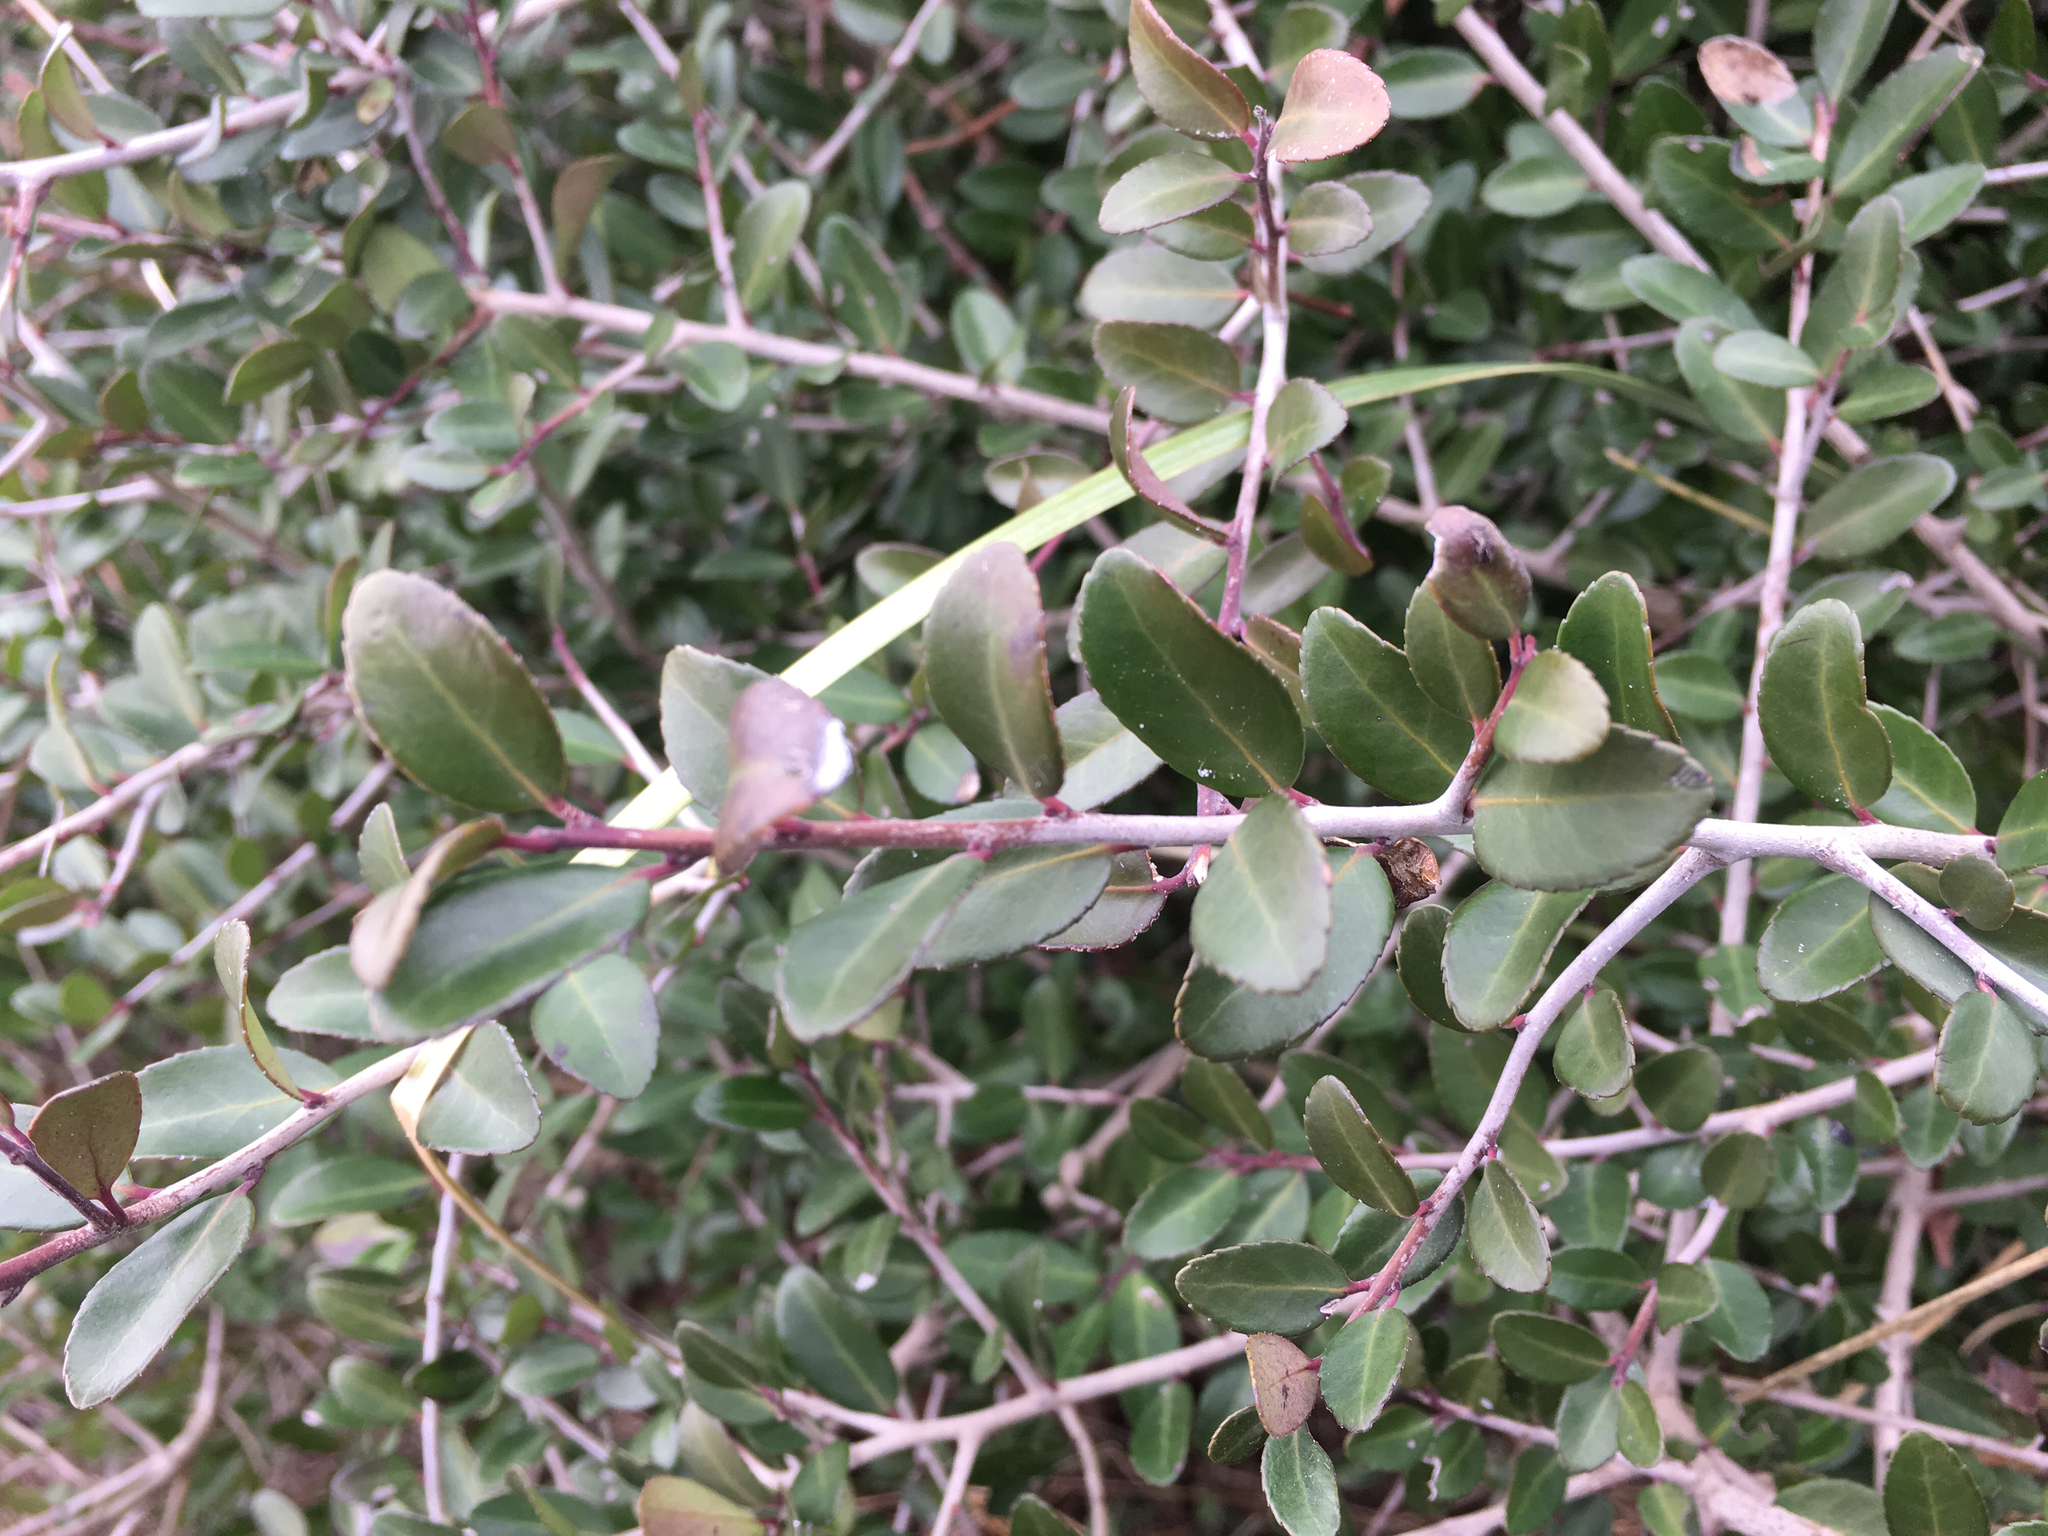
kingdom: Plantae
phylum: Tracheophyta
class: Magnoliopsida
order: Aquifoliales
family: Aquifoliaceae
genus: Ilex
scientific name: Ilex vomitoria
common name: Yaupon holly
